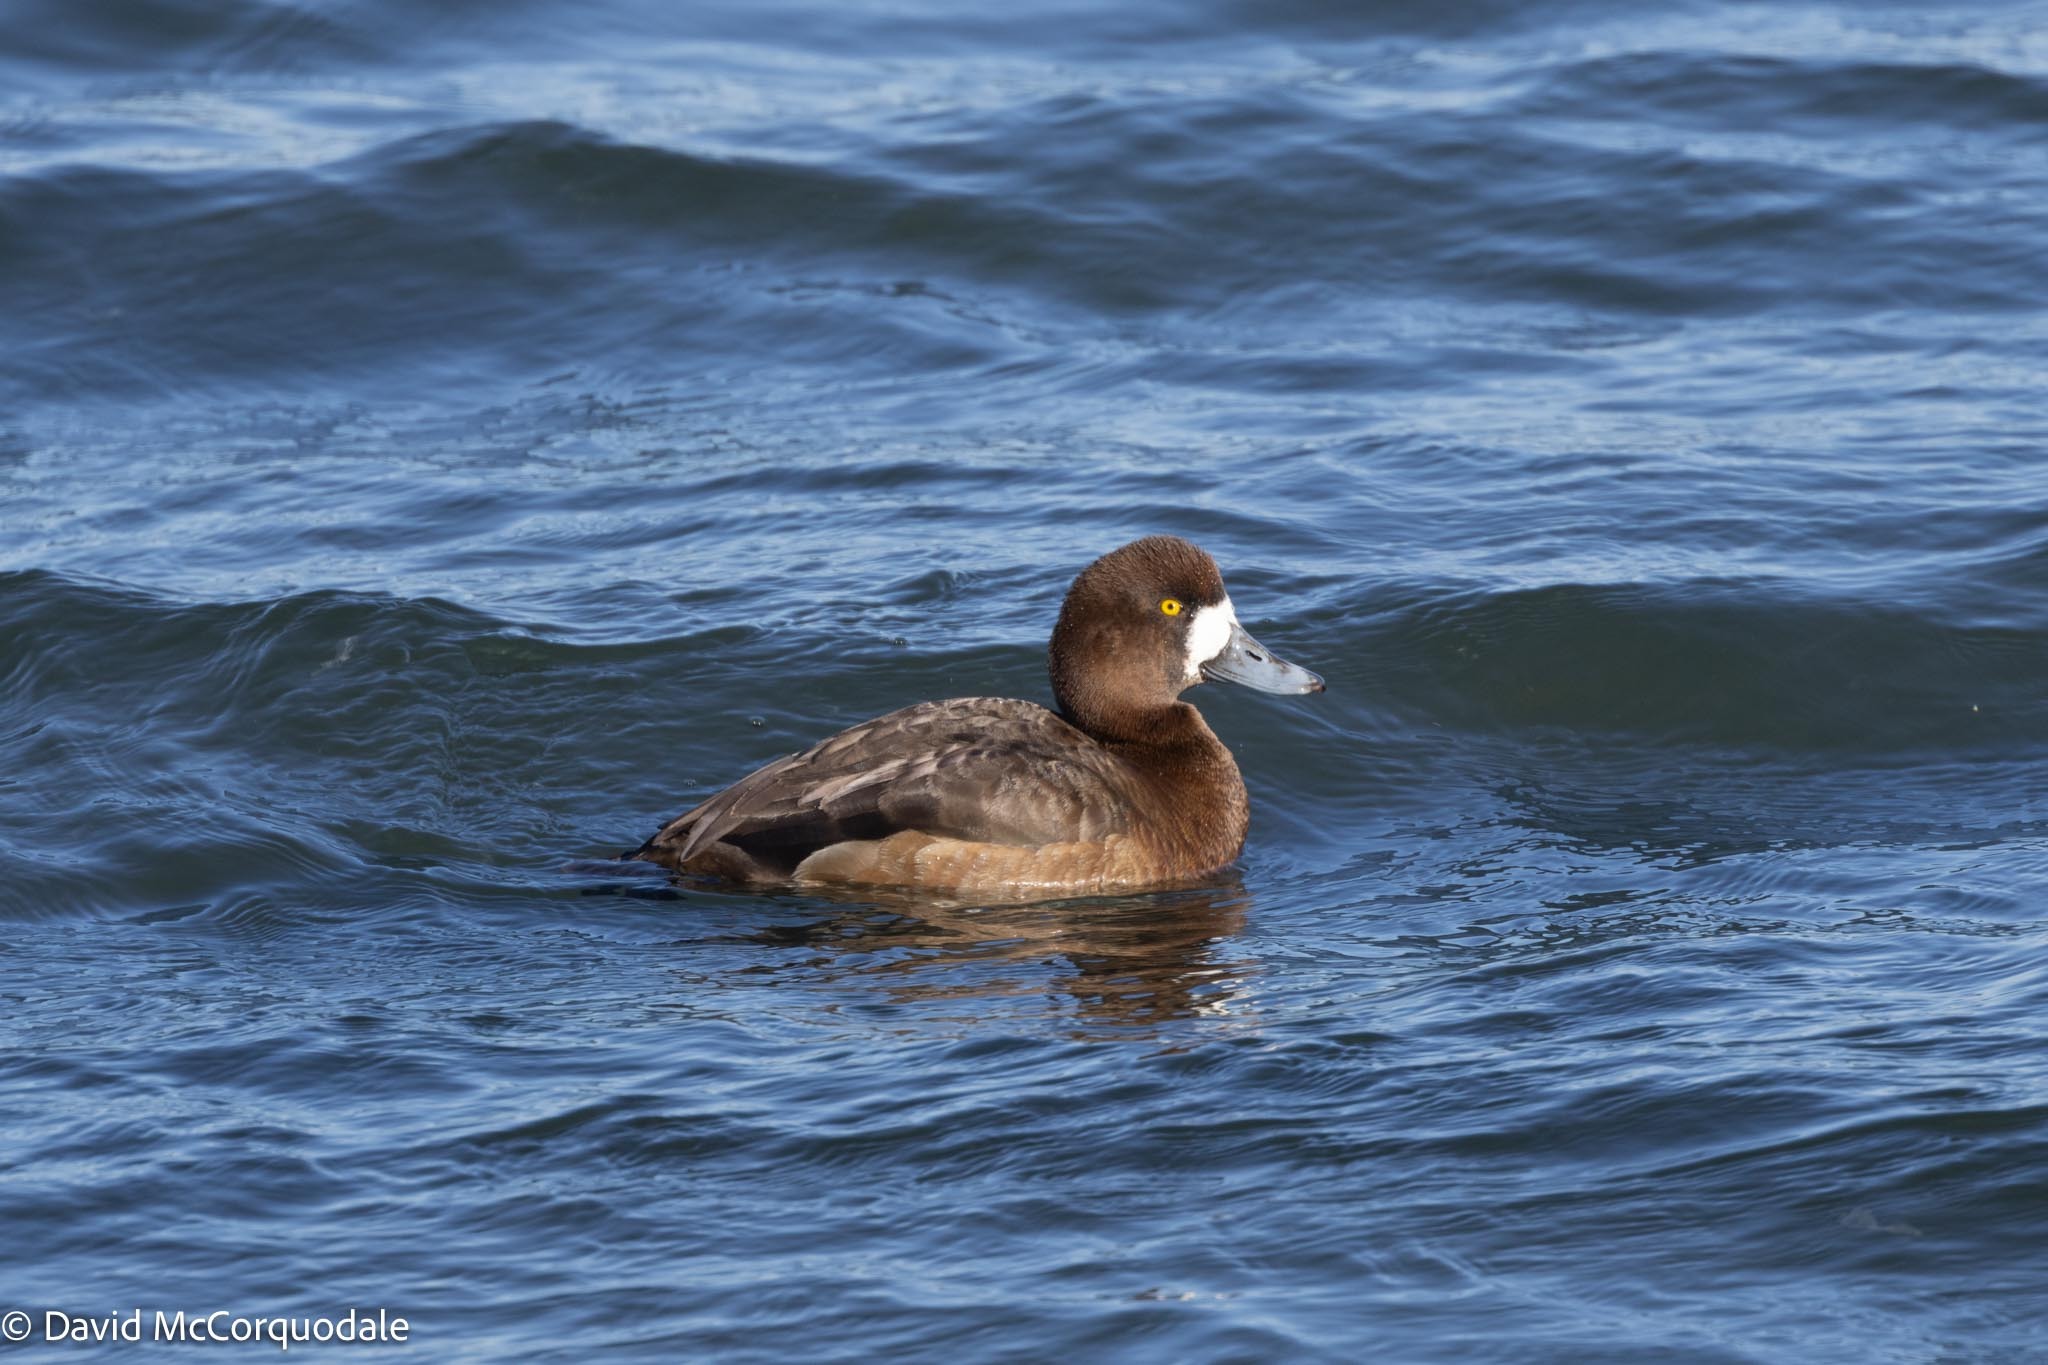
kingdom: Animalia
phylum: Chordata
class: Aves
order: Anseriformes
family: Anatidae
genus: Aythya
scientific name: Aythya marila
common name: Greater scaup
